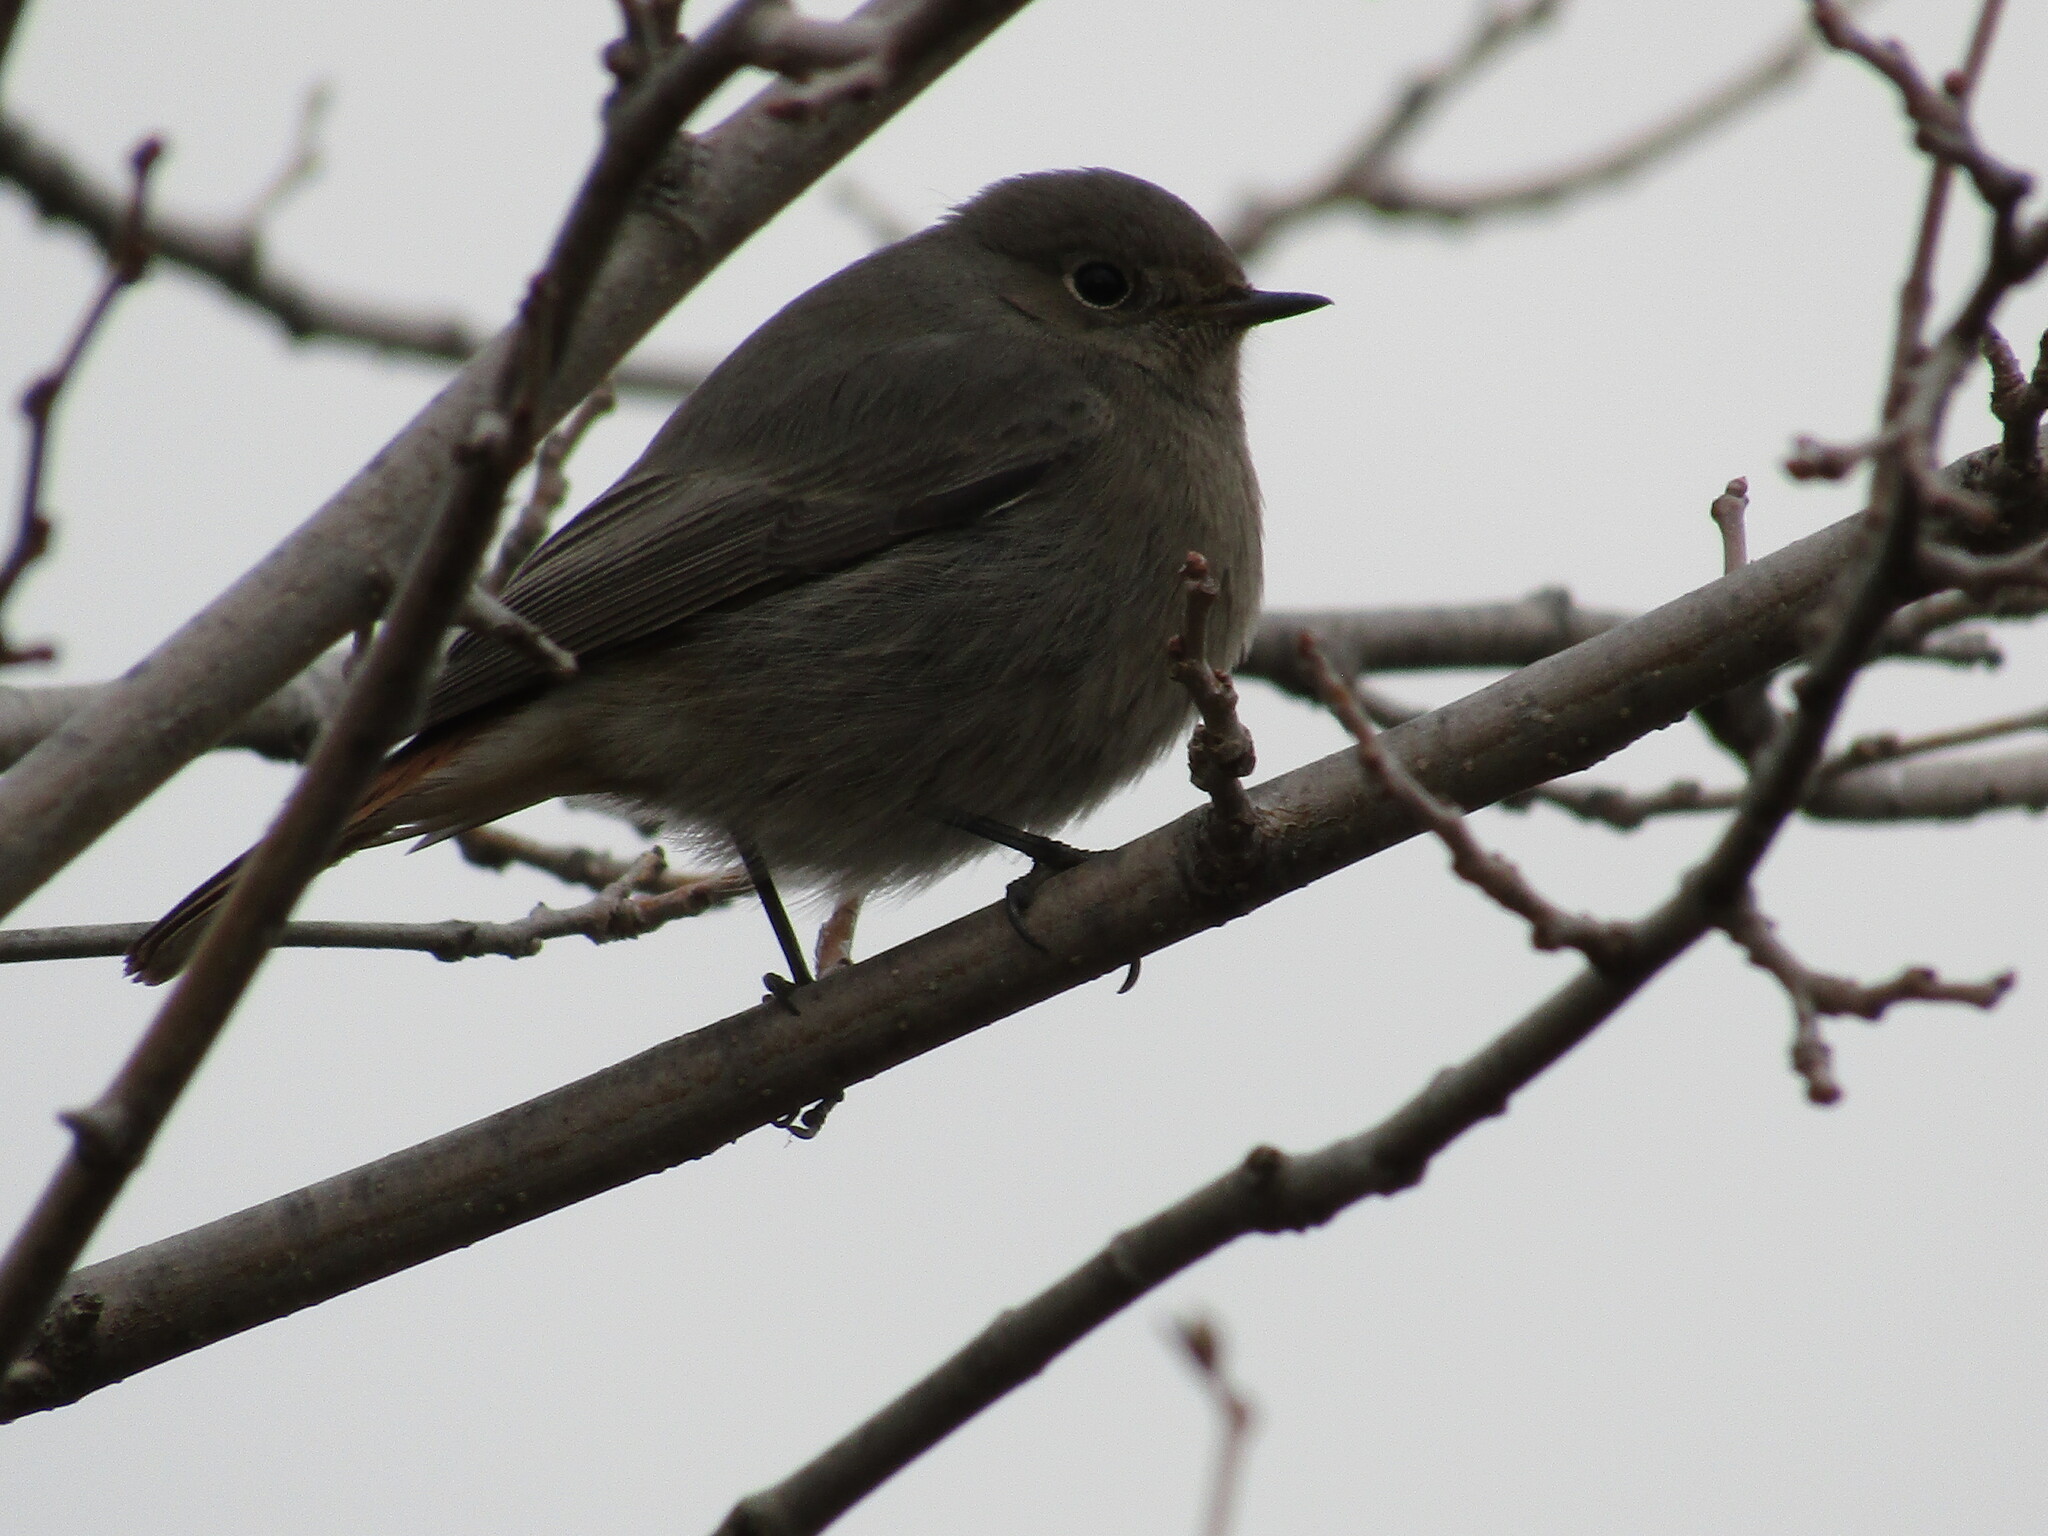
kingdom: Animalia
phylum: Chordata
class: Aves
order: Passeriformes
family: Muscicapidae
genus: Phoenicurus
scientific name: Phoenicurus ochruros
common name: Black redstart
